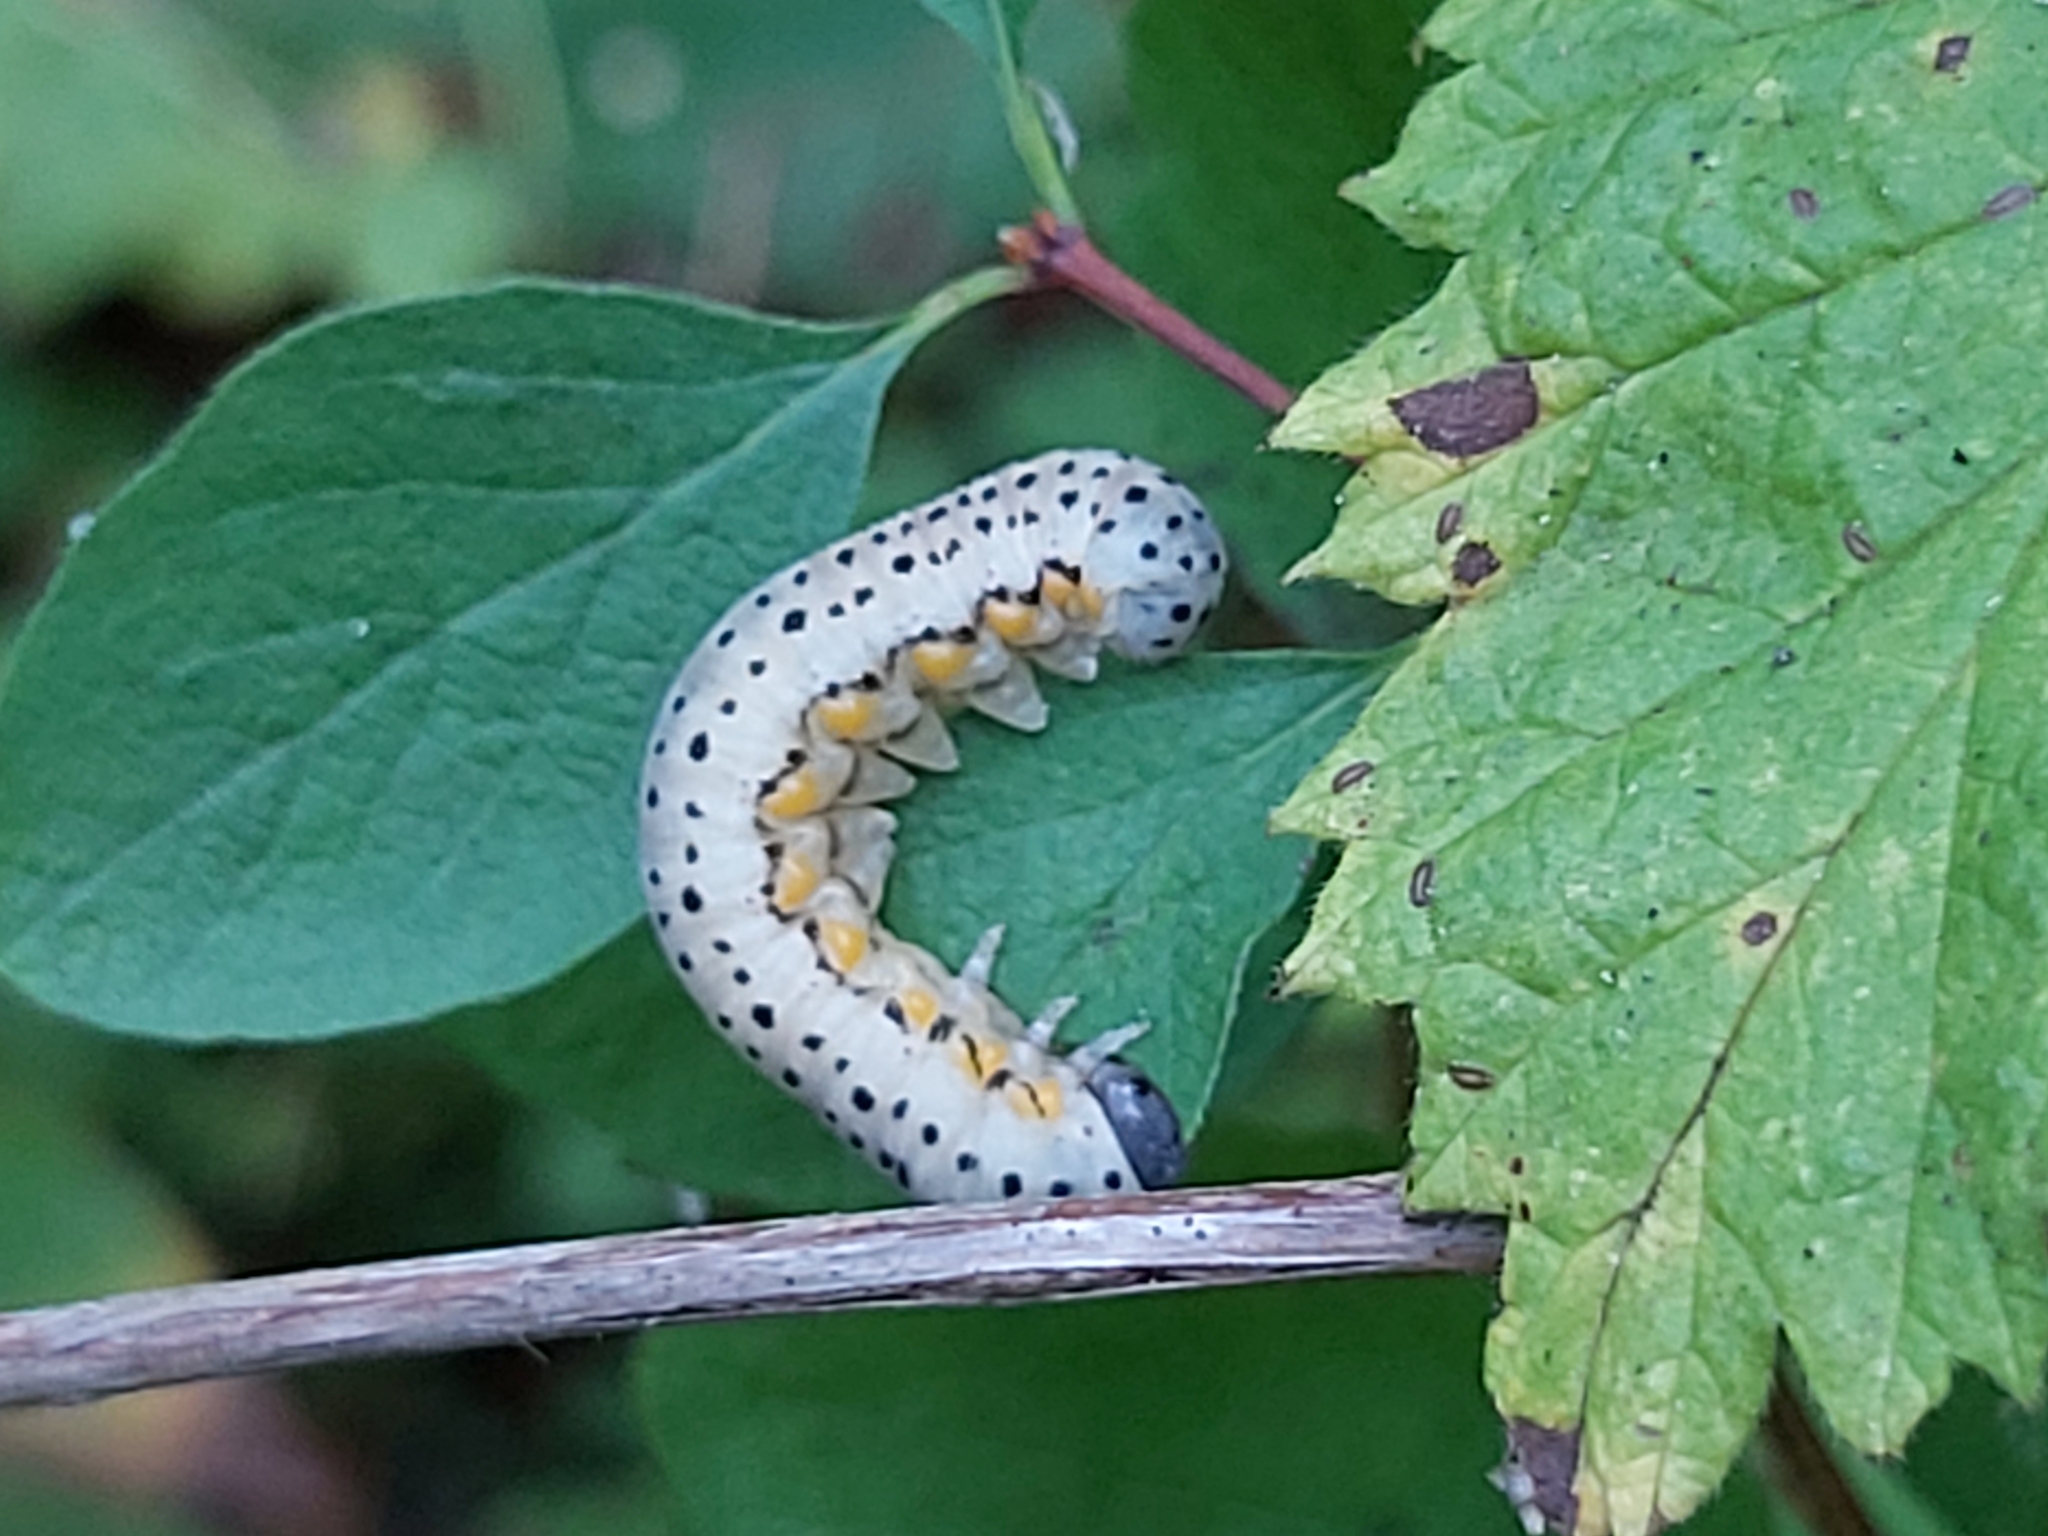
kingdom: Animalia
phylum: Arthropoda
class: Insecta
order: Hymenoptera
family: Cimbicidae
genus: Abia
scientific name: Abia fasciata
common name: Banded honeysuckle sawfly
